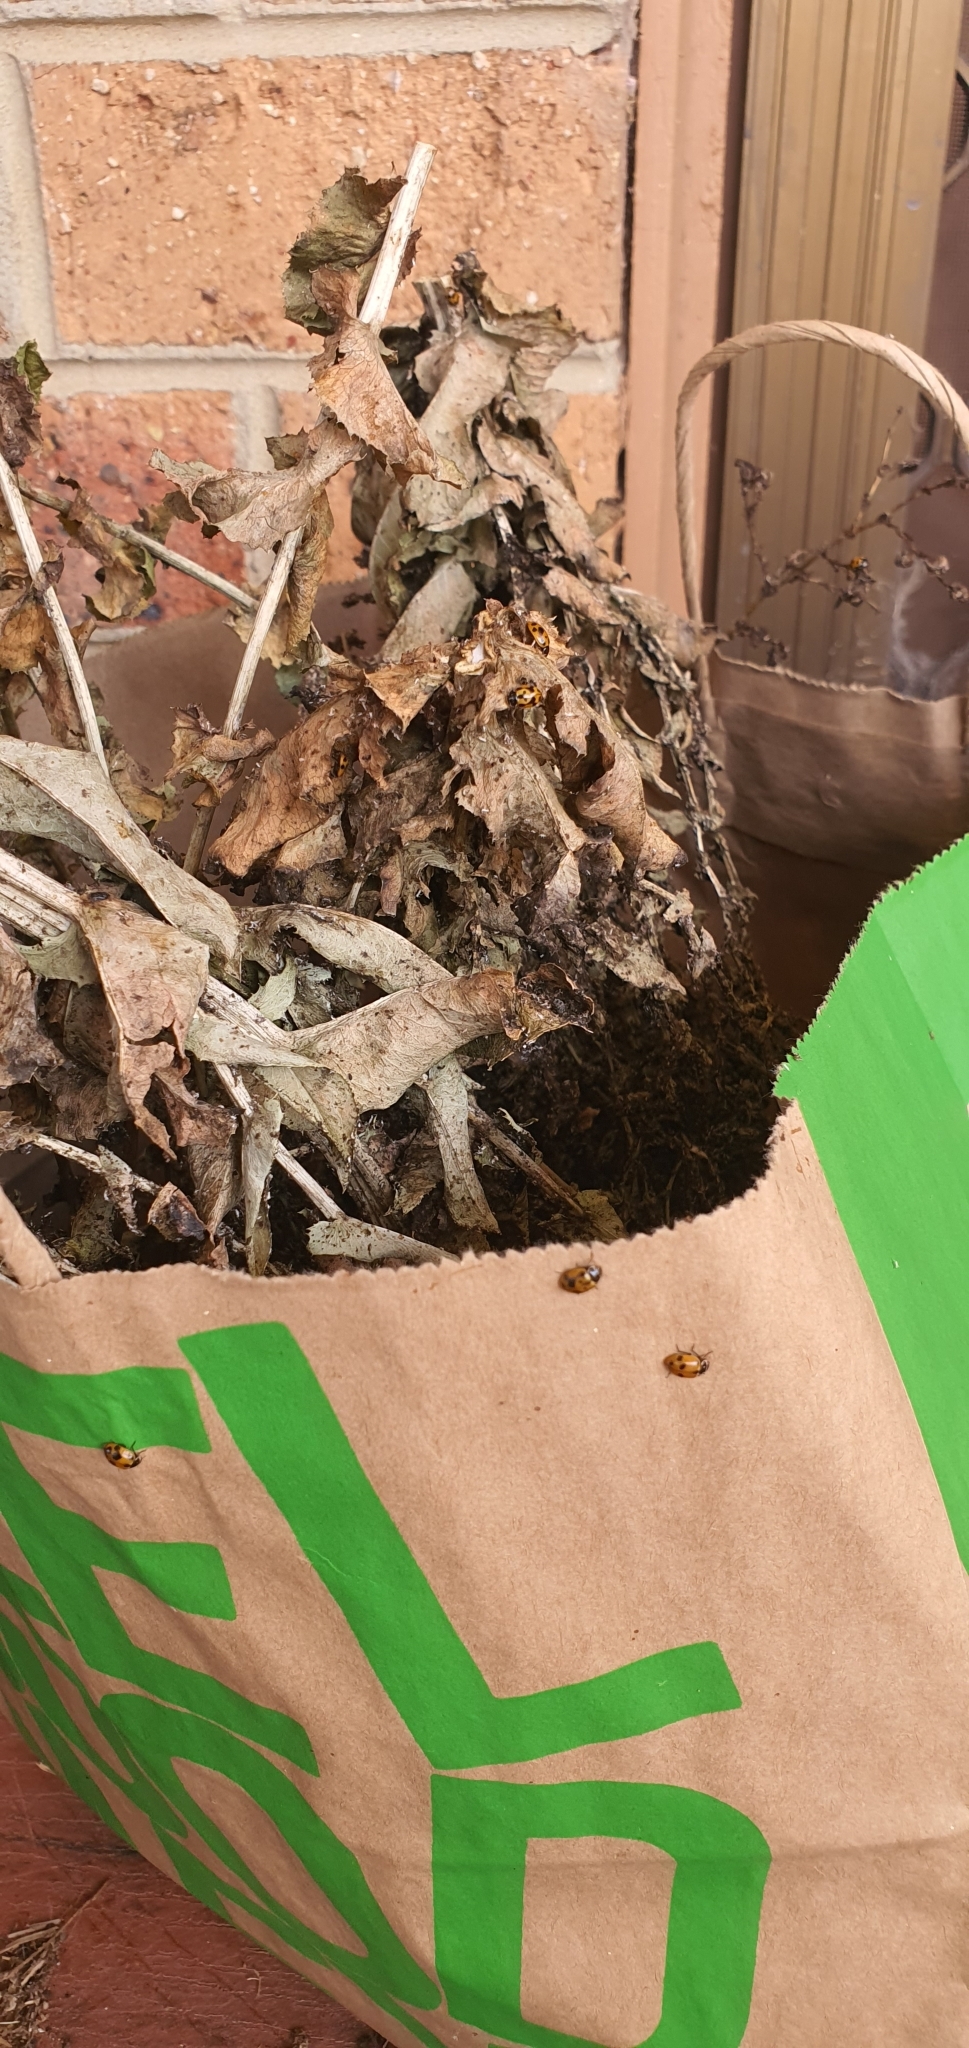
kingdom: Animalia
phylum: Arthropoda
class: Insecta
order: Coleoptera
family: Coccinellidae
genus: Hippodamia
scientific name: Hippodamia variegata
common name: Ladybird beetle
